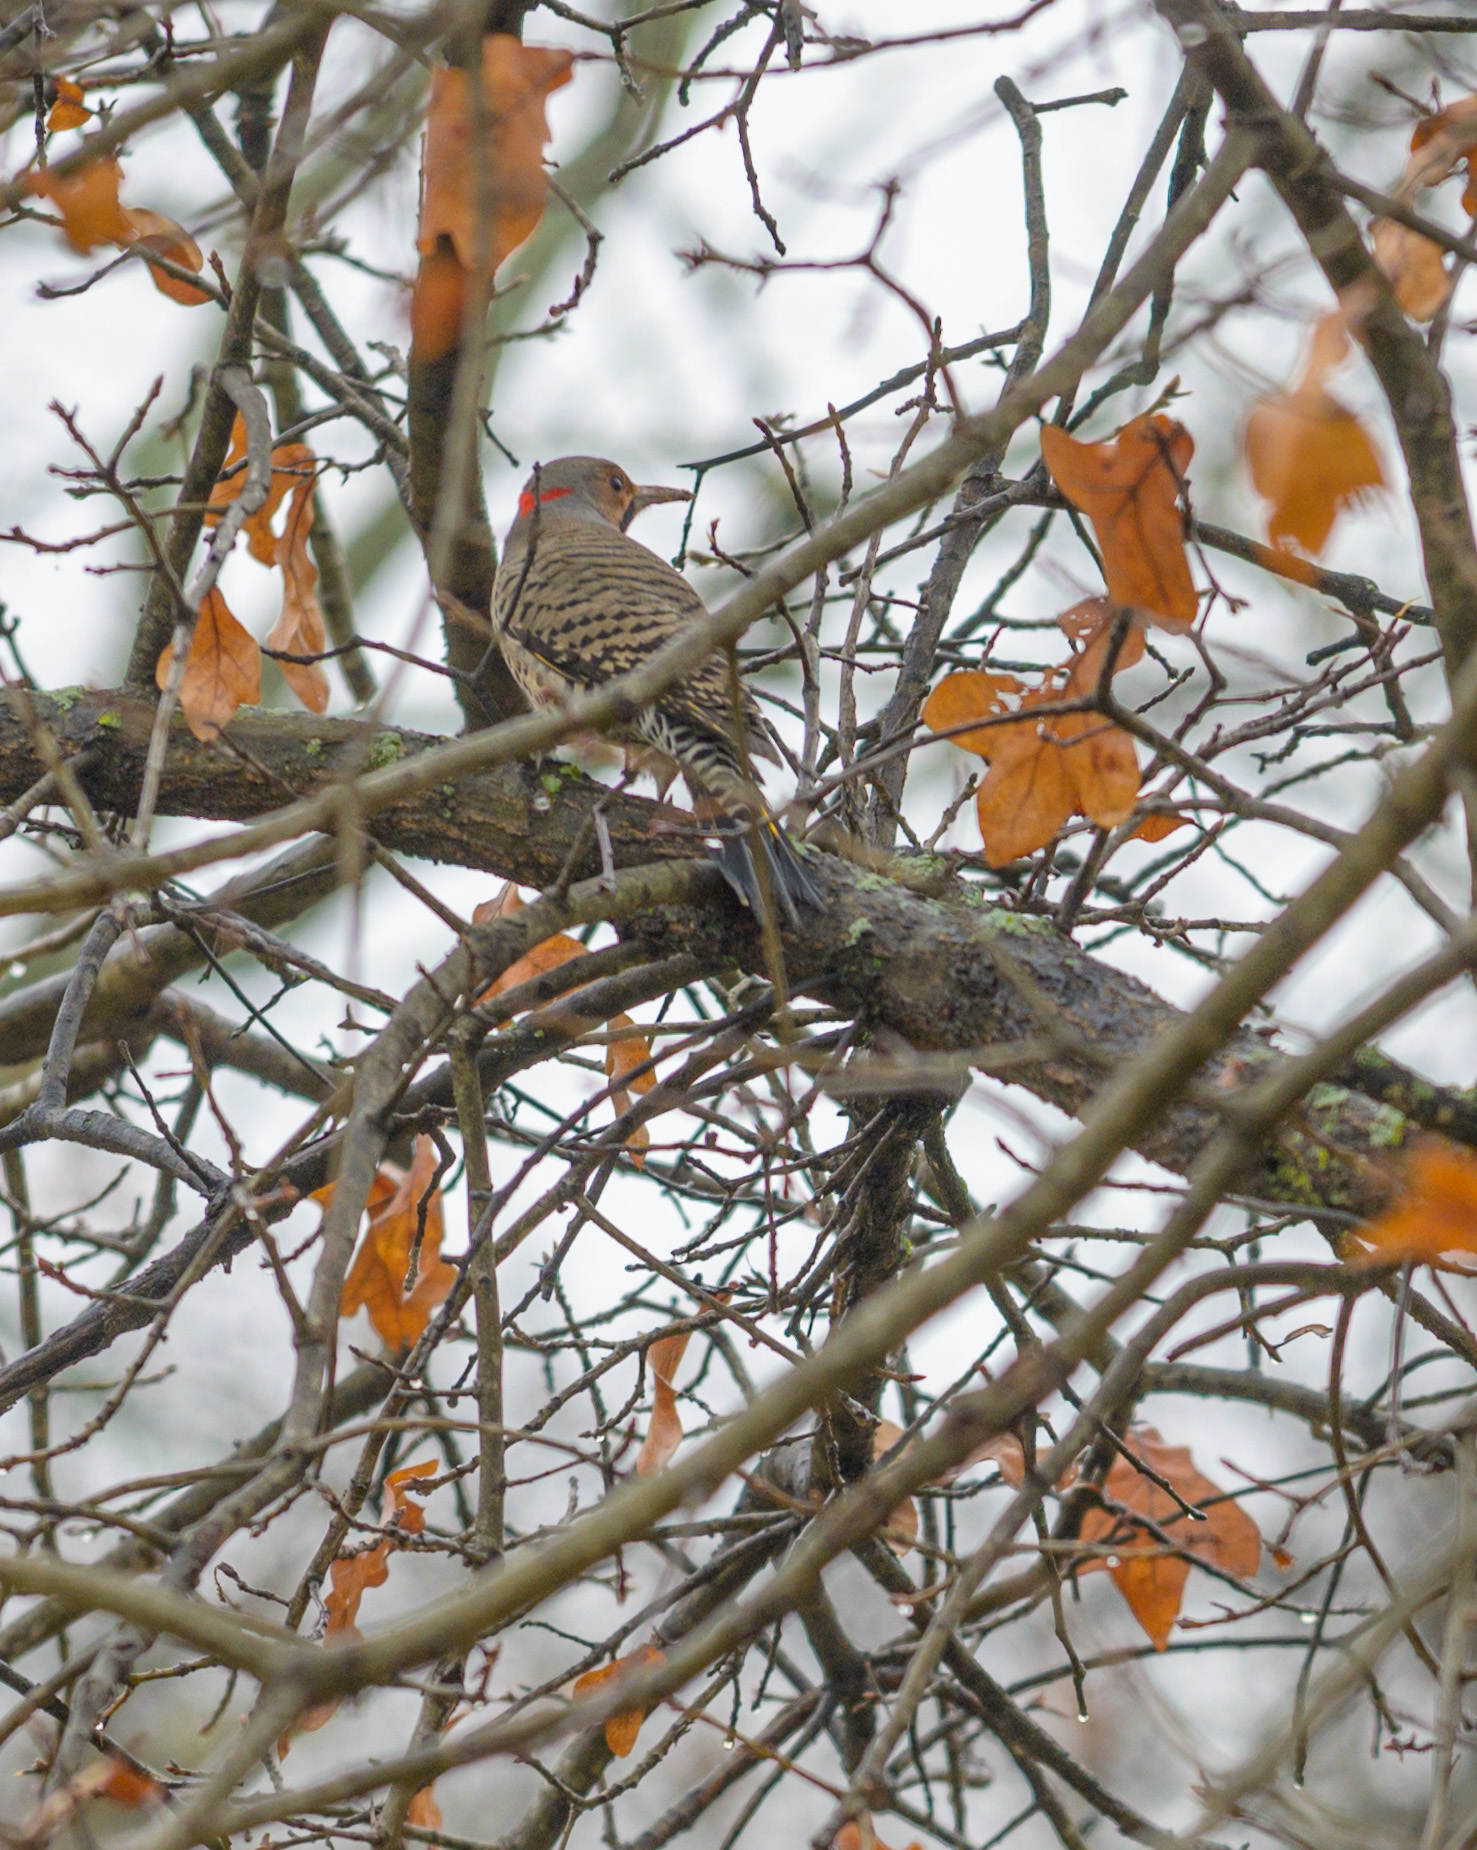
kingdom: Animalia
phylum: Chordata
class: Aves
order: Piciformes
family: Picidae
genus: Colaptes
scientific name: Colaptes auratus
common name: Northern flicker
